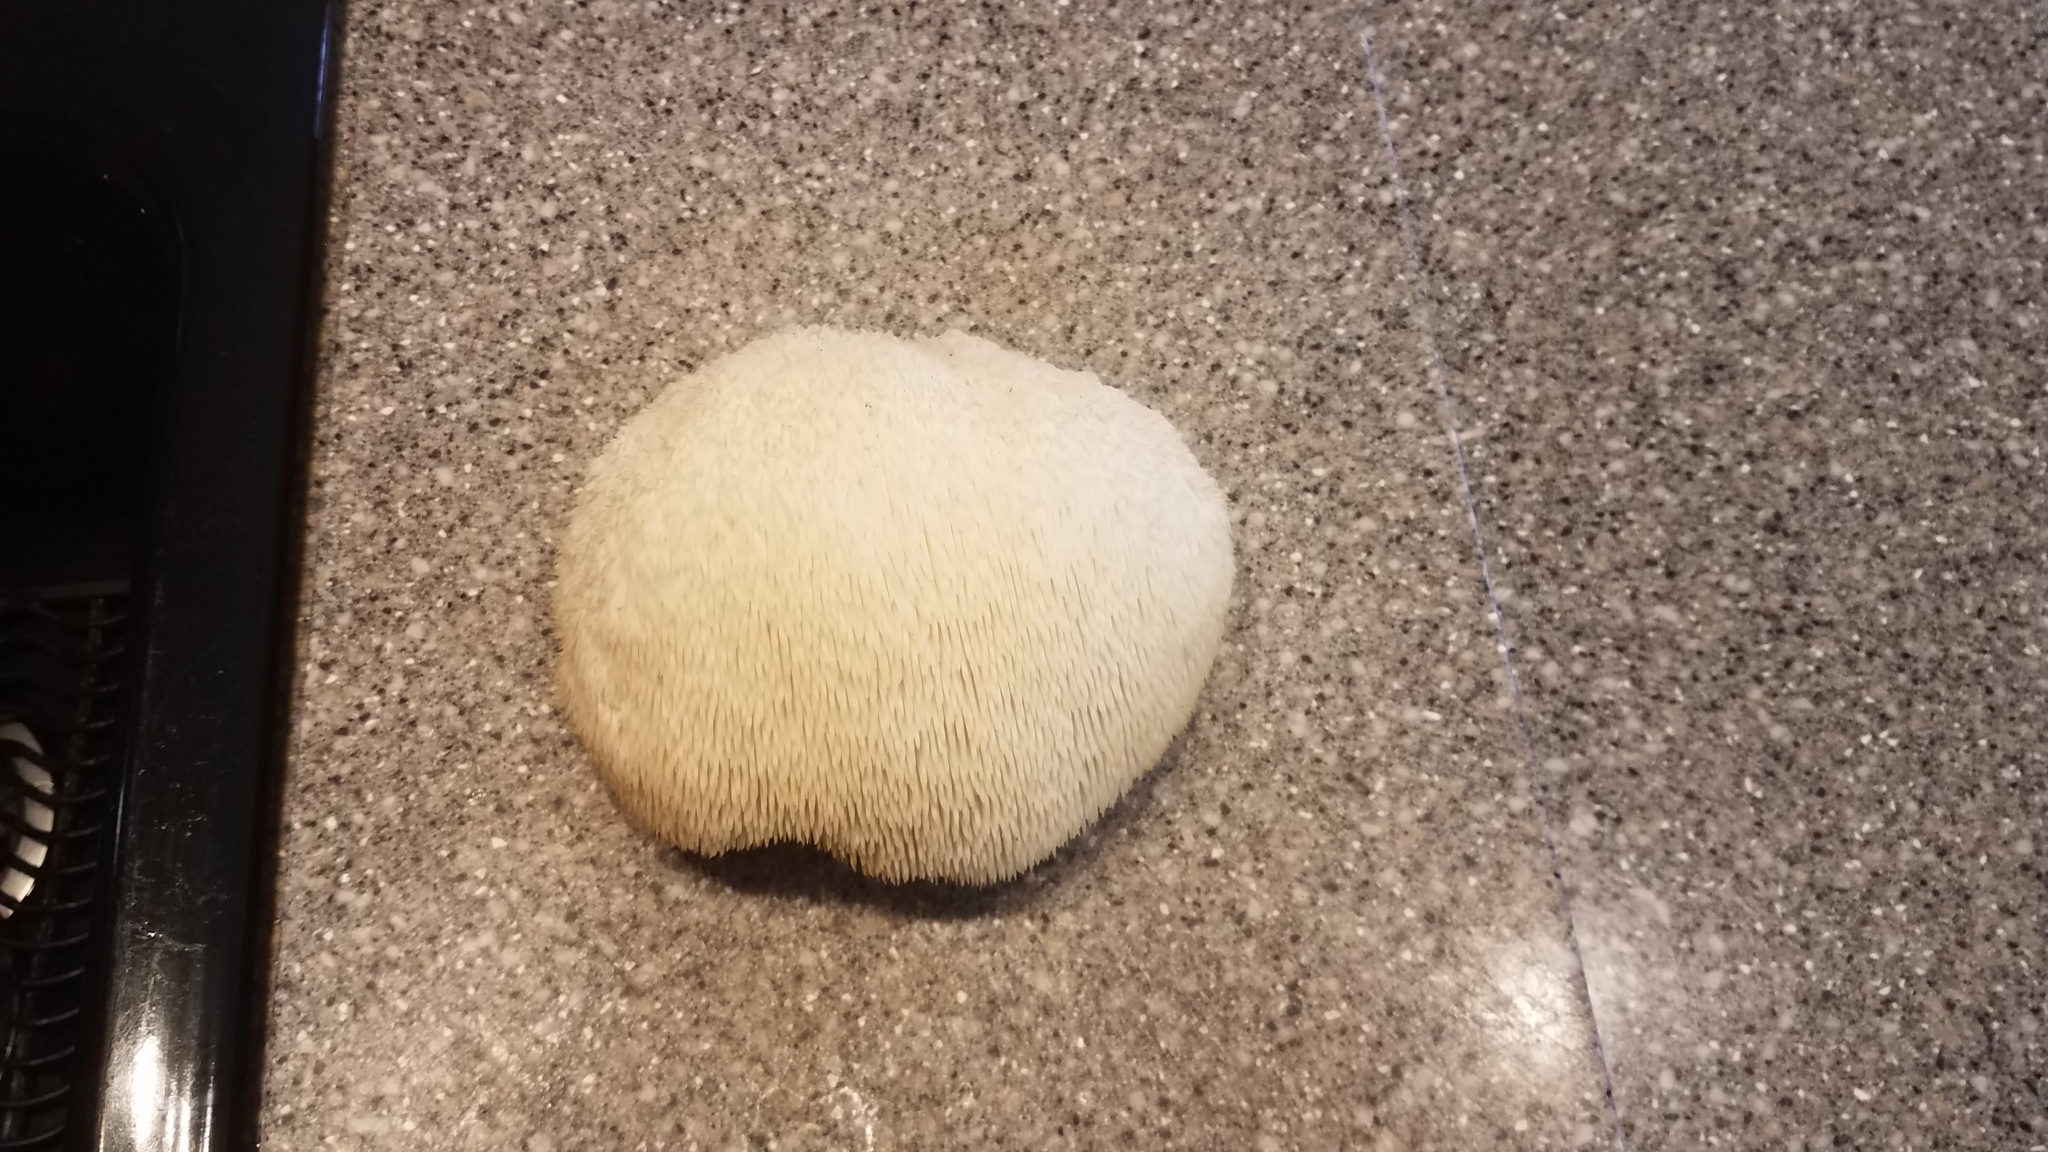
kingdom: Fungi
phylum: Basidiomycota
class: Agaricomycetes
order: Russulales
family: Hericiaceae
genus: Hericium
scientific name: Hericium erinaceus
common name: Bearded tooth
